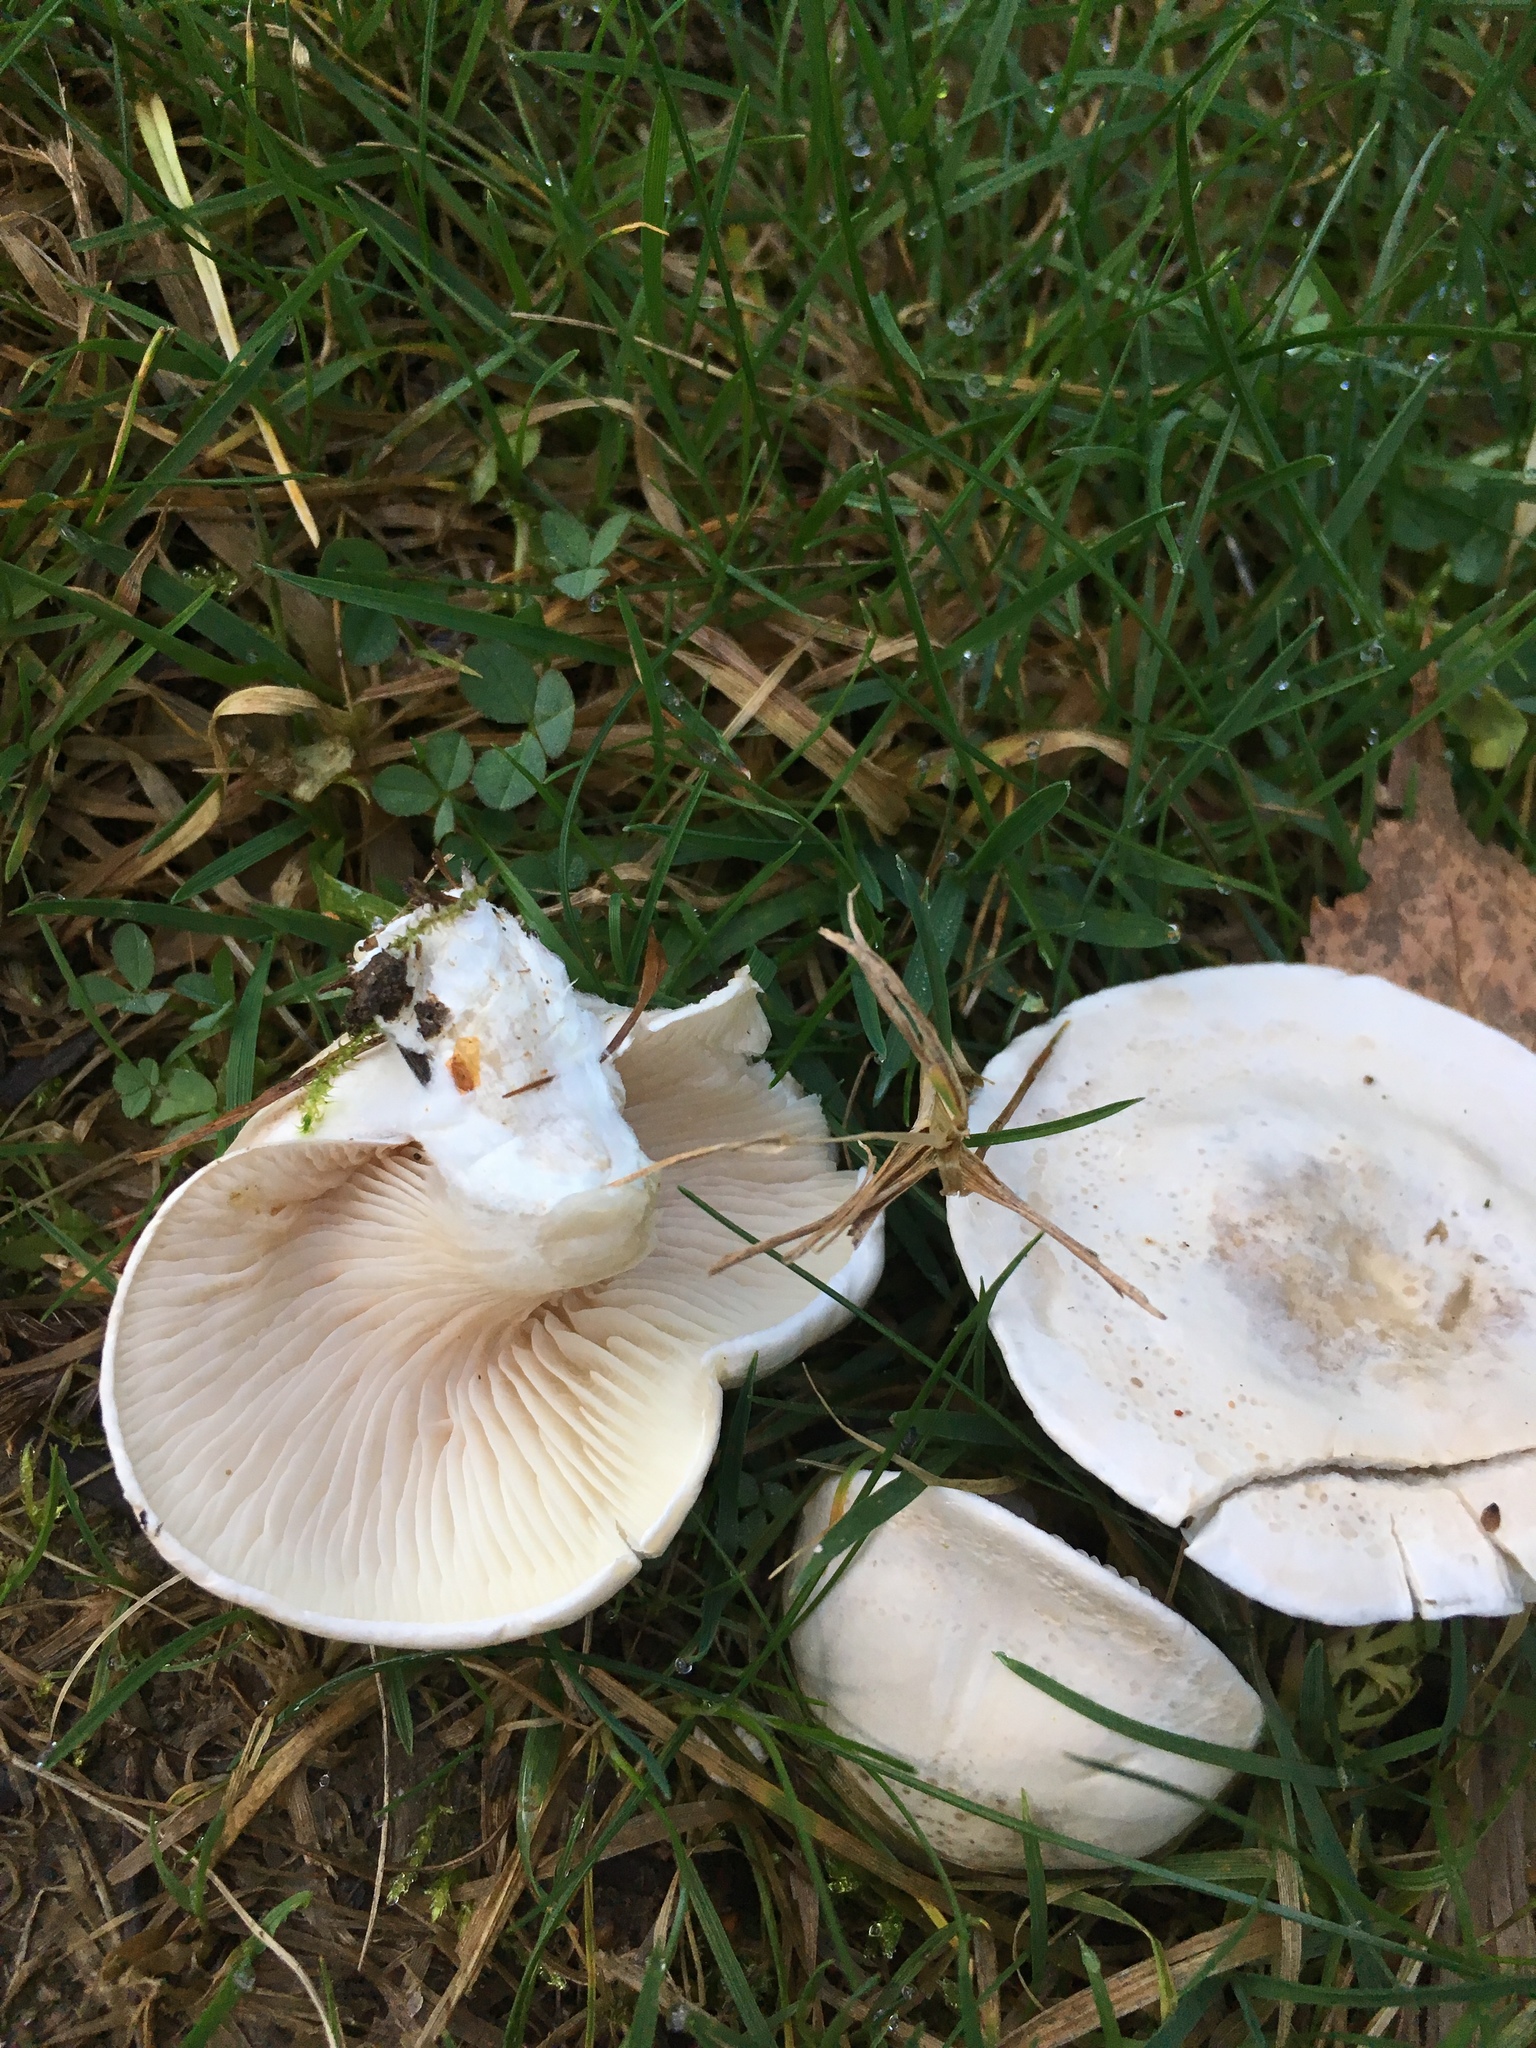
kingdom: Fungi
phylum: Basidiomycota
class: Agaricomycetes
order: Agaricales
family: Hygrophoraceae
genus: Hygrophorus
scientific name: Hygrophorus eburneus
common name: Ivory wax-cap
